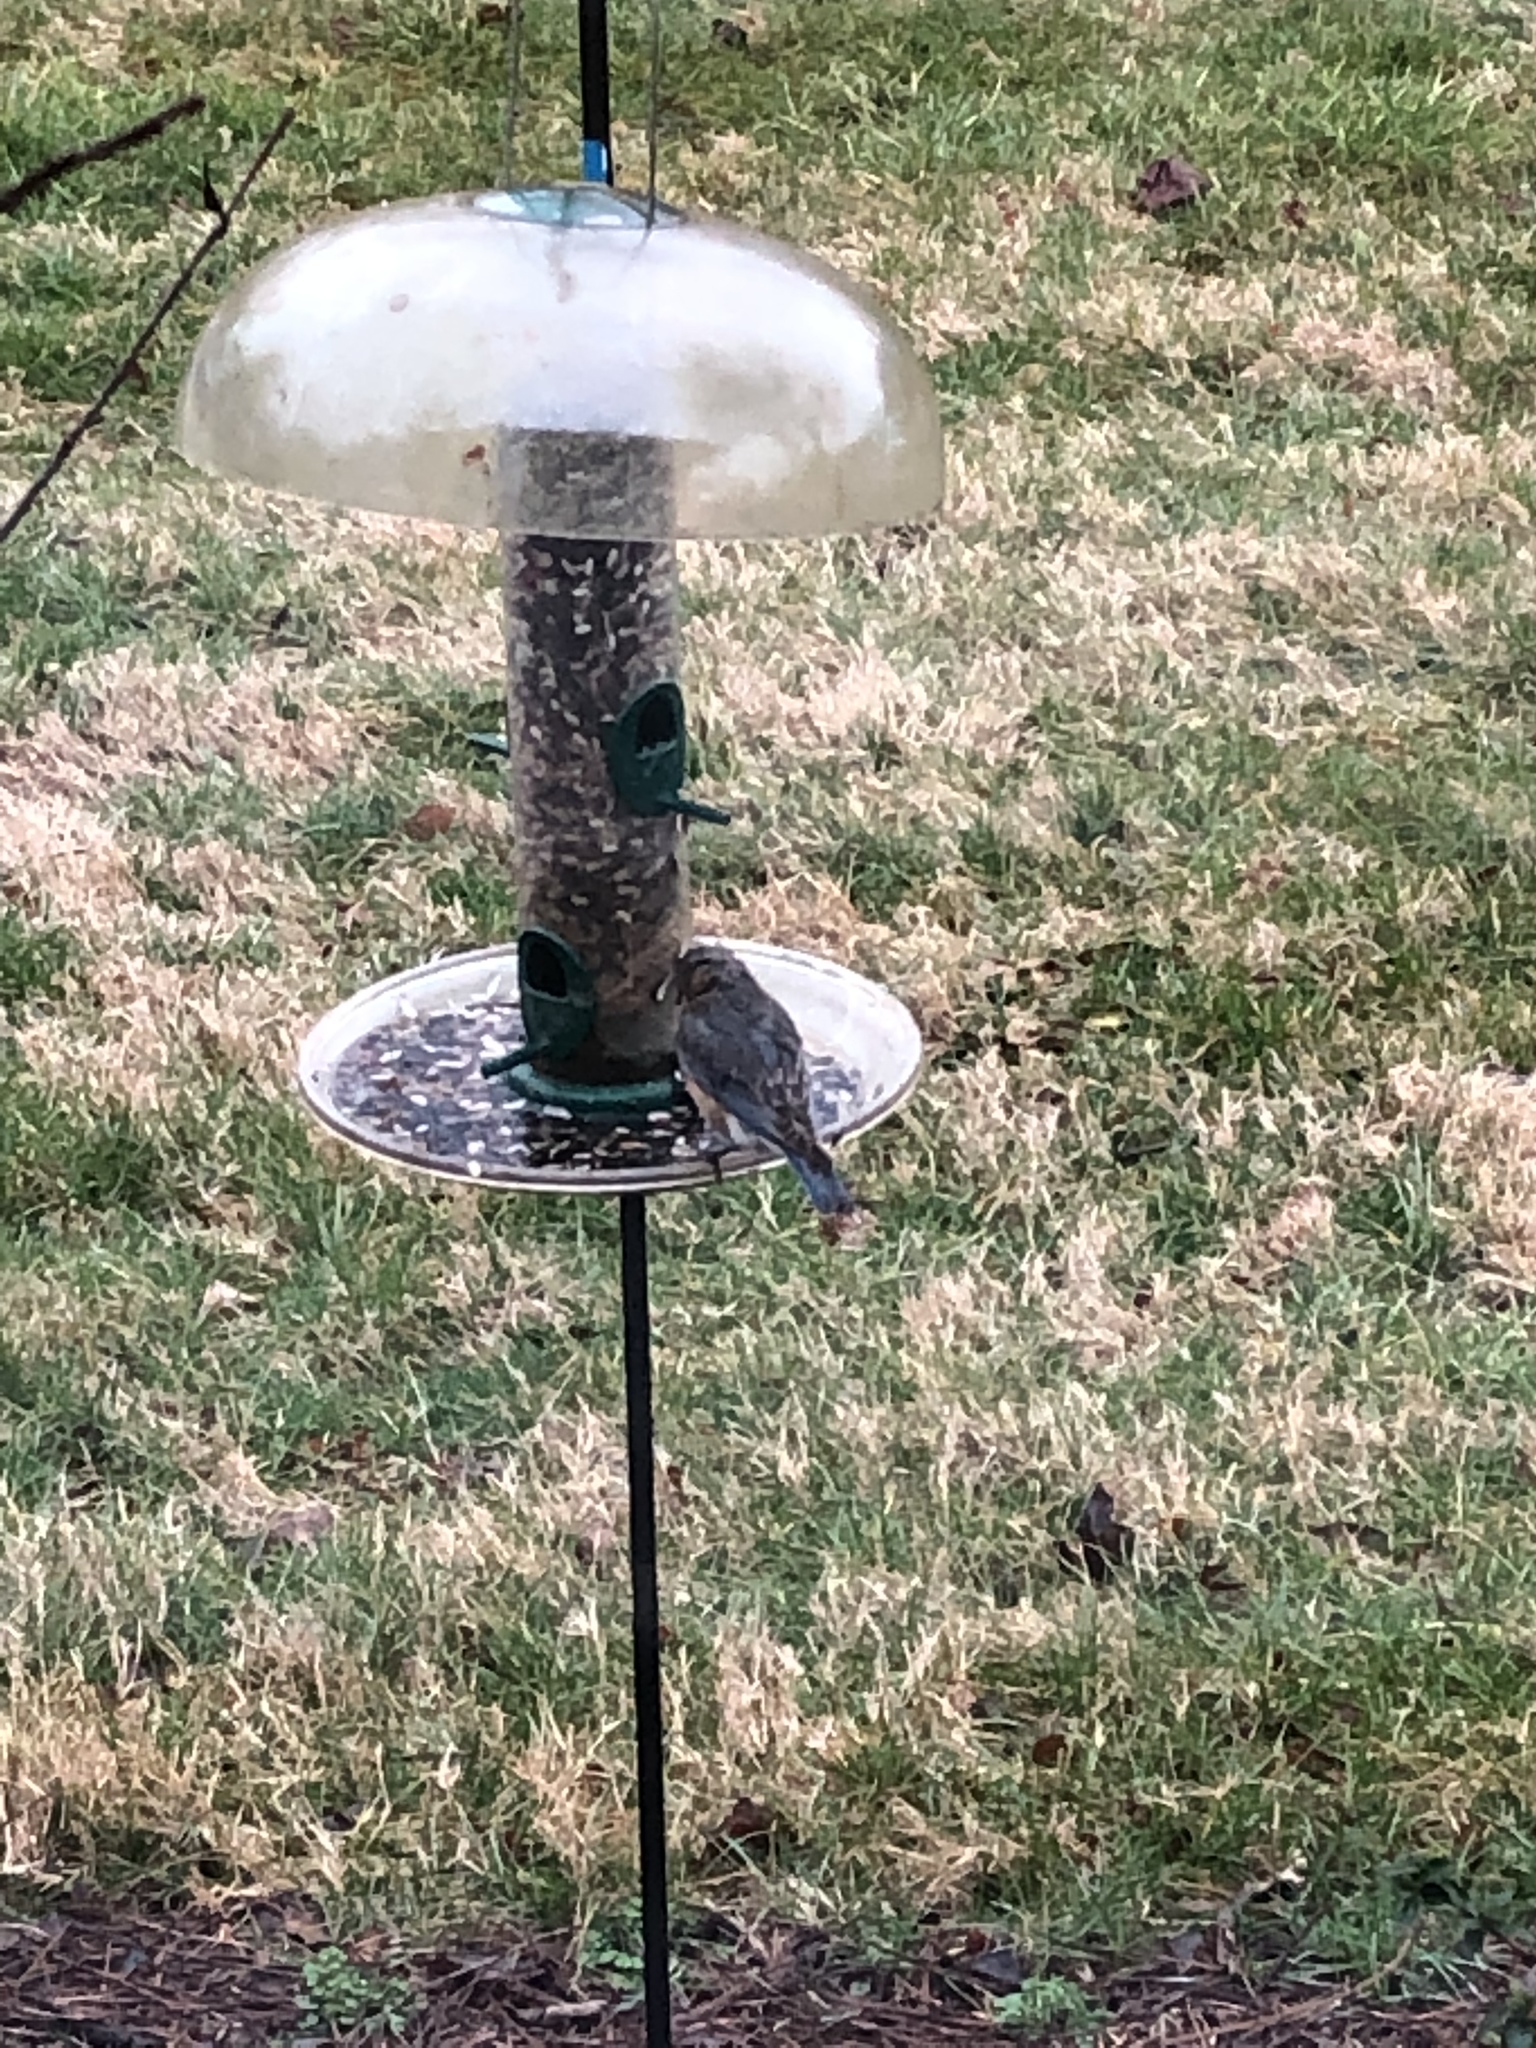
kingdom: Animalia
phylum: Chordata
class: Aves
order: Passeriformes
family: Turdidae
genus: Sialia
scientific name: Sialia sialis
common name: Eastern bluebird
